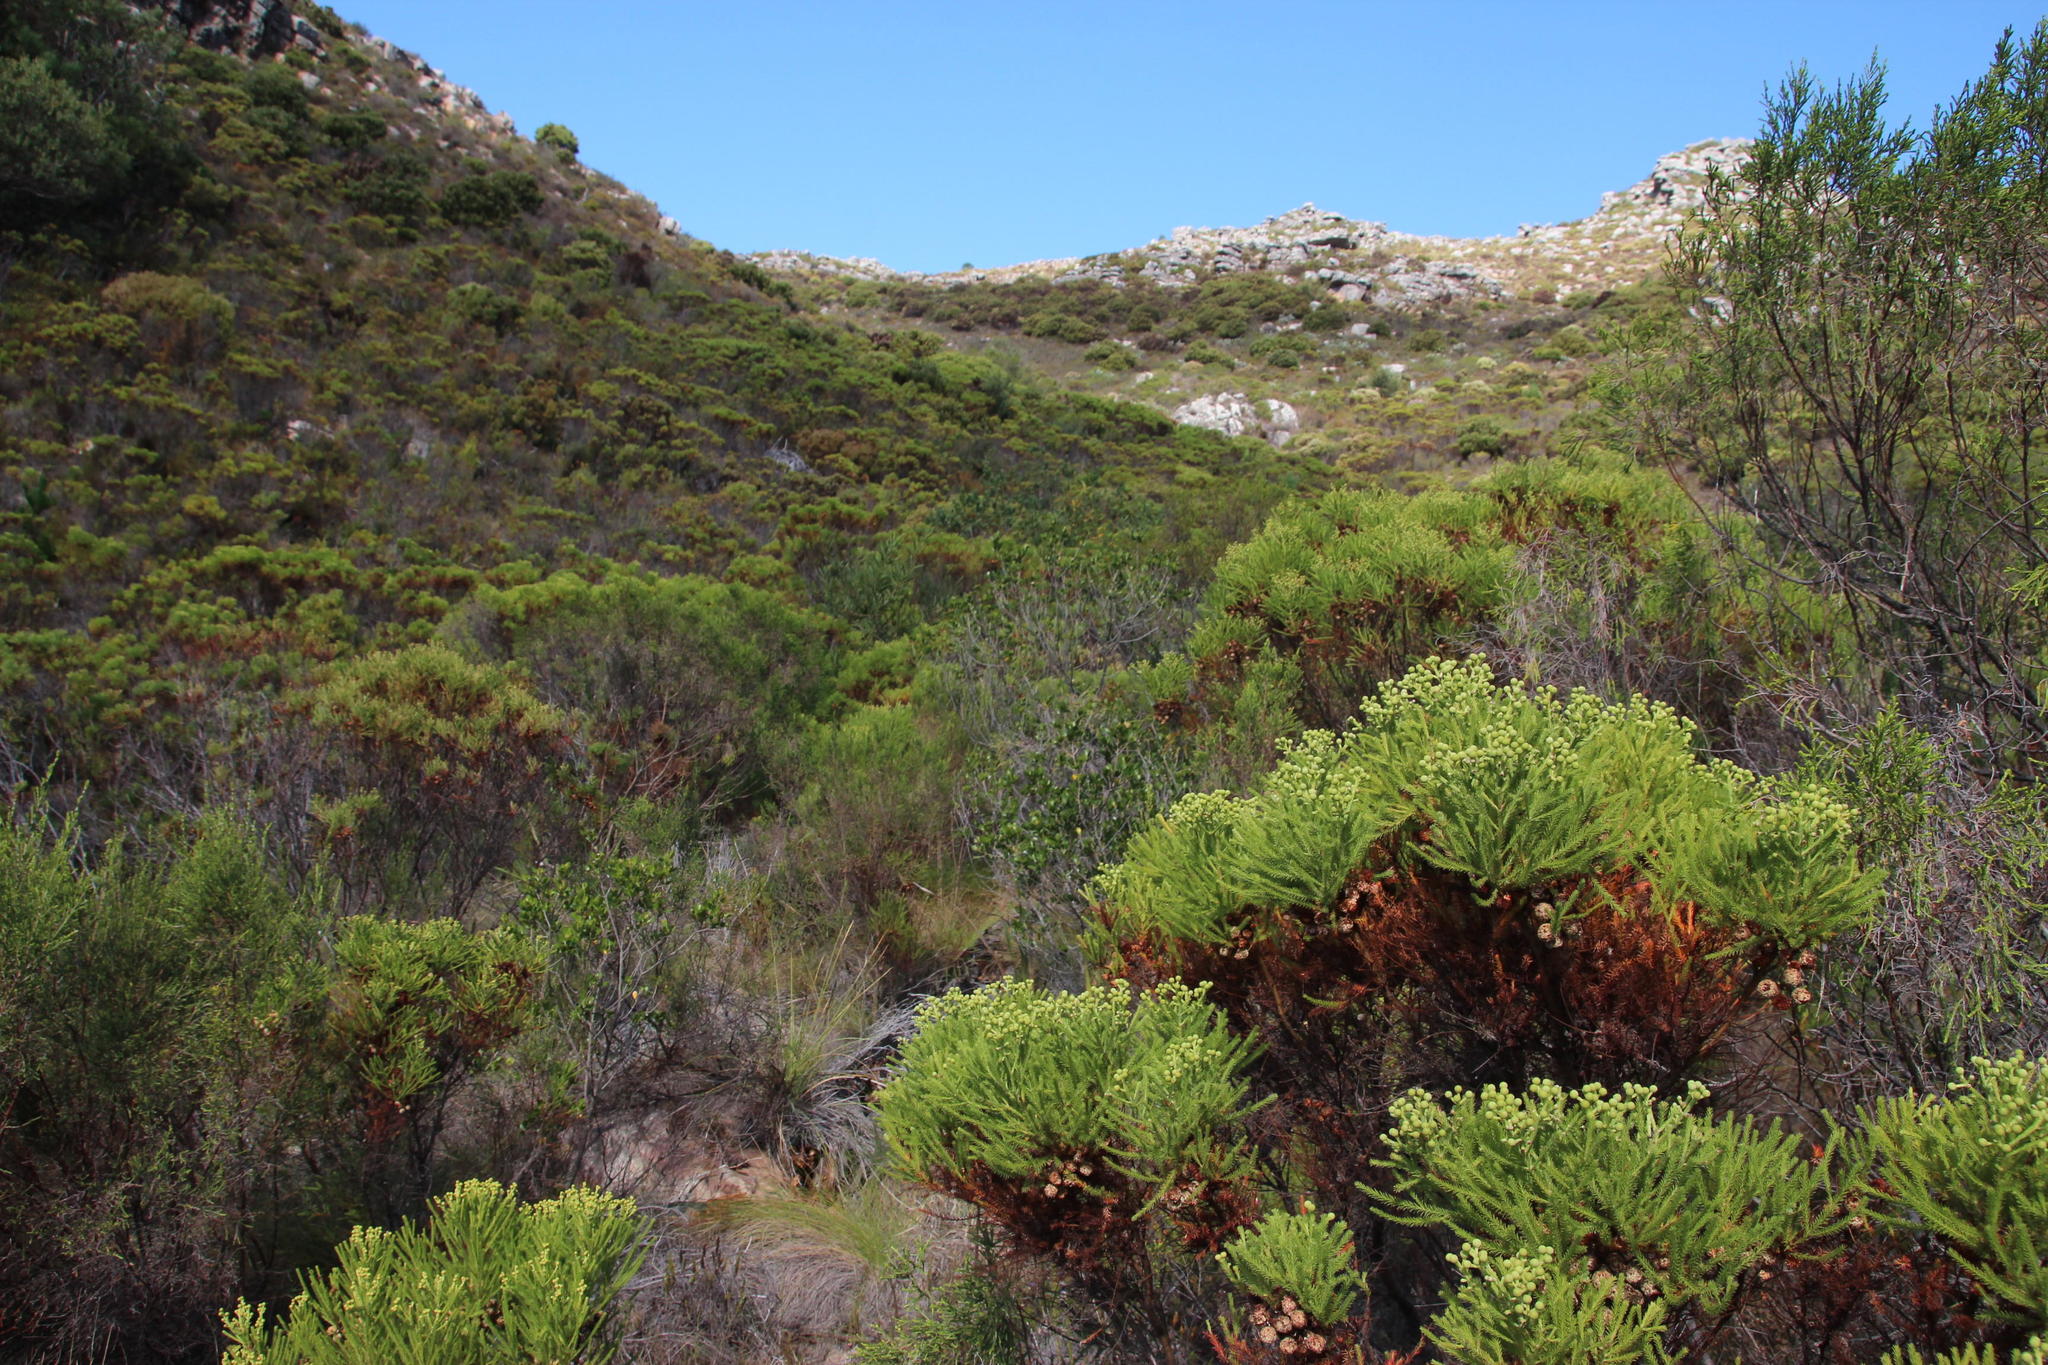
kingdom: Plantae
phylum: Tracheophyta
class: Magnoliopsida
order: Bruniales
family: Bruniaceae
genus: Berzelia
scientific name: Berzelia lanuginosa
